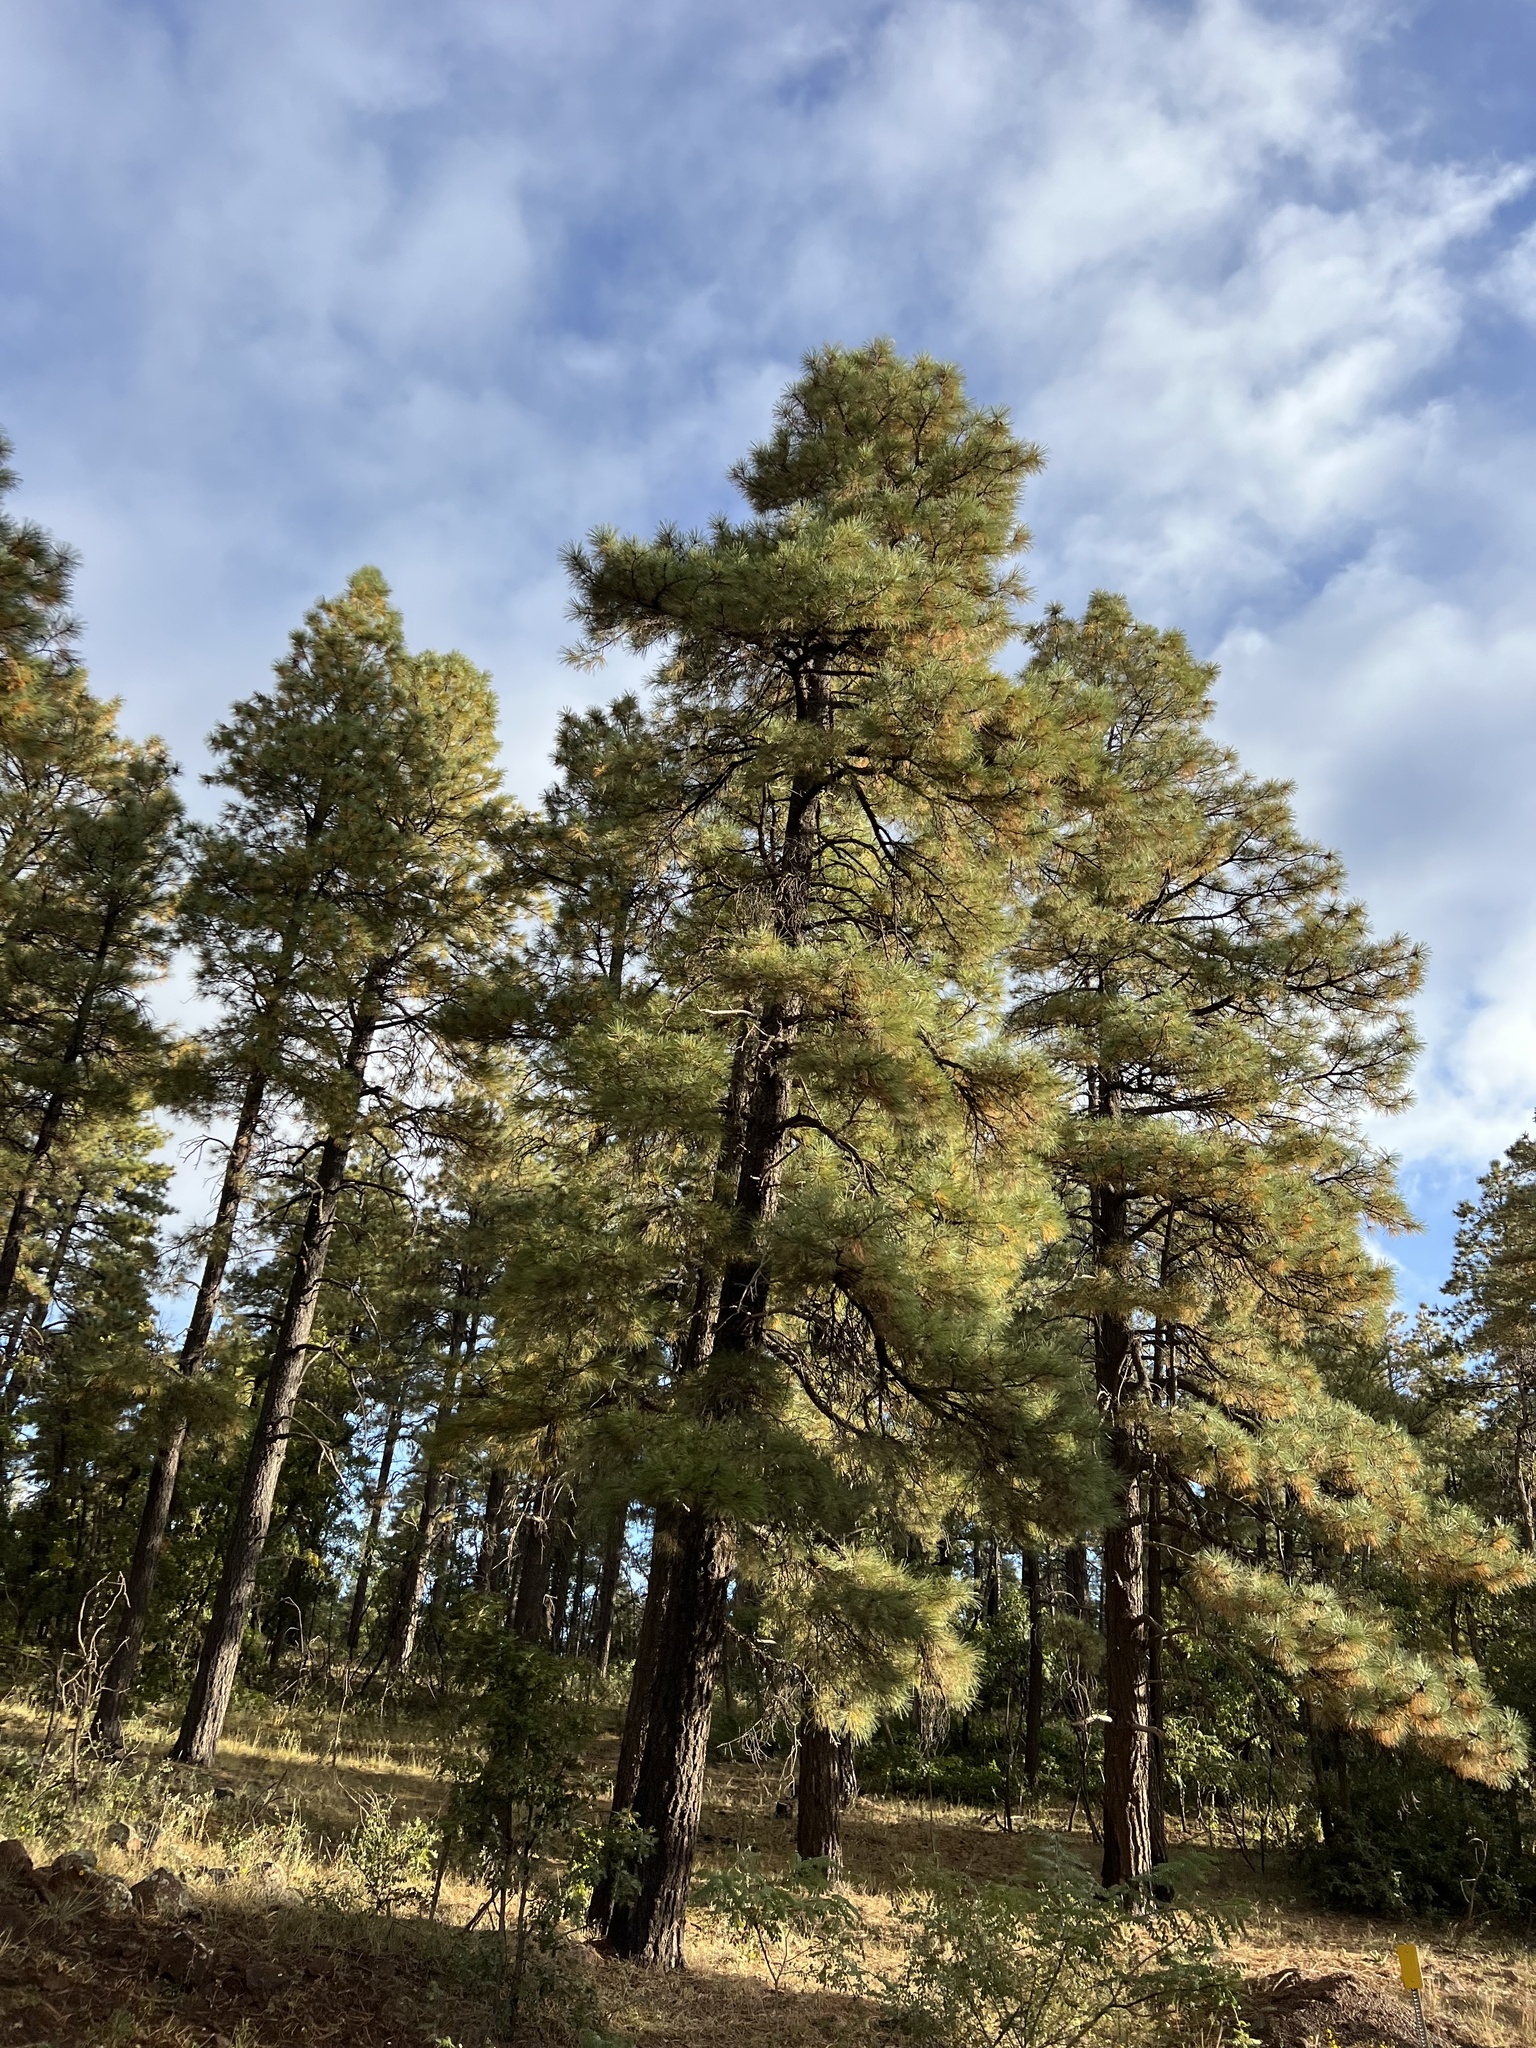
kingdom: Plantae
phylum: Tracheophyta
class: Pinopsida
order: Pinales
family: Pinaceae
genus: Pinus
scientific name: Pinus ponderosa
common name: Western yellow-pine
